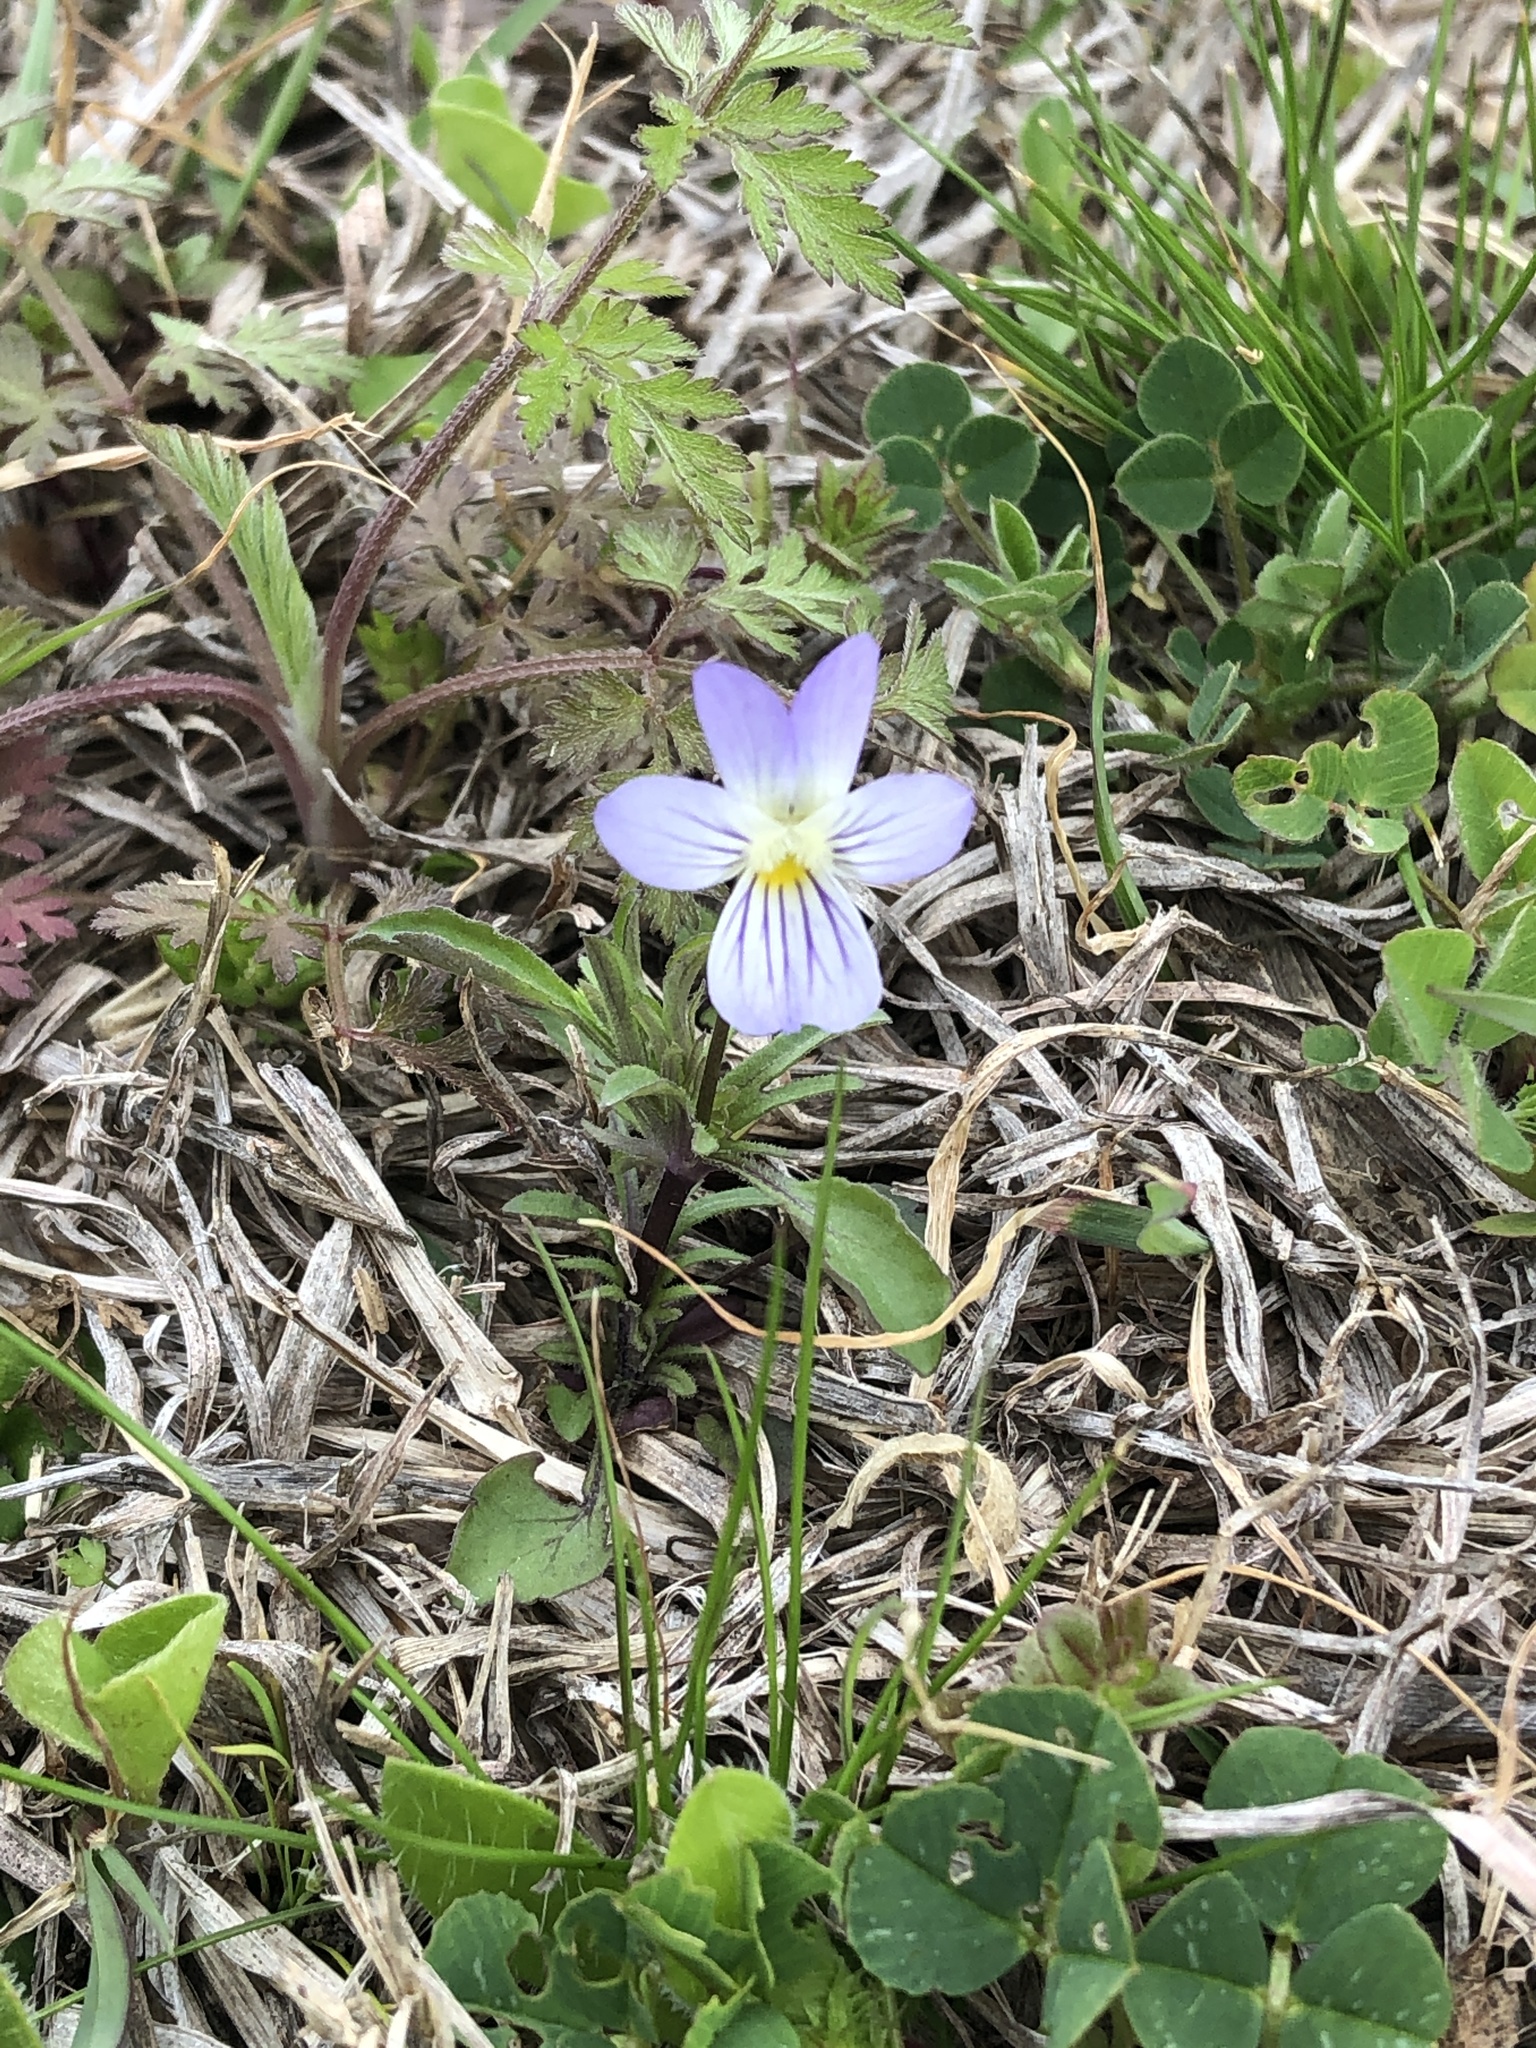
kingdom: Plantae
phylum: Tracheophyta
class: Magnoliopsida
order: Malpighiales
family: Violaceae
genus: Viola
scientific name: Viola rafinesquei
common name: American field pansy
